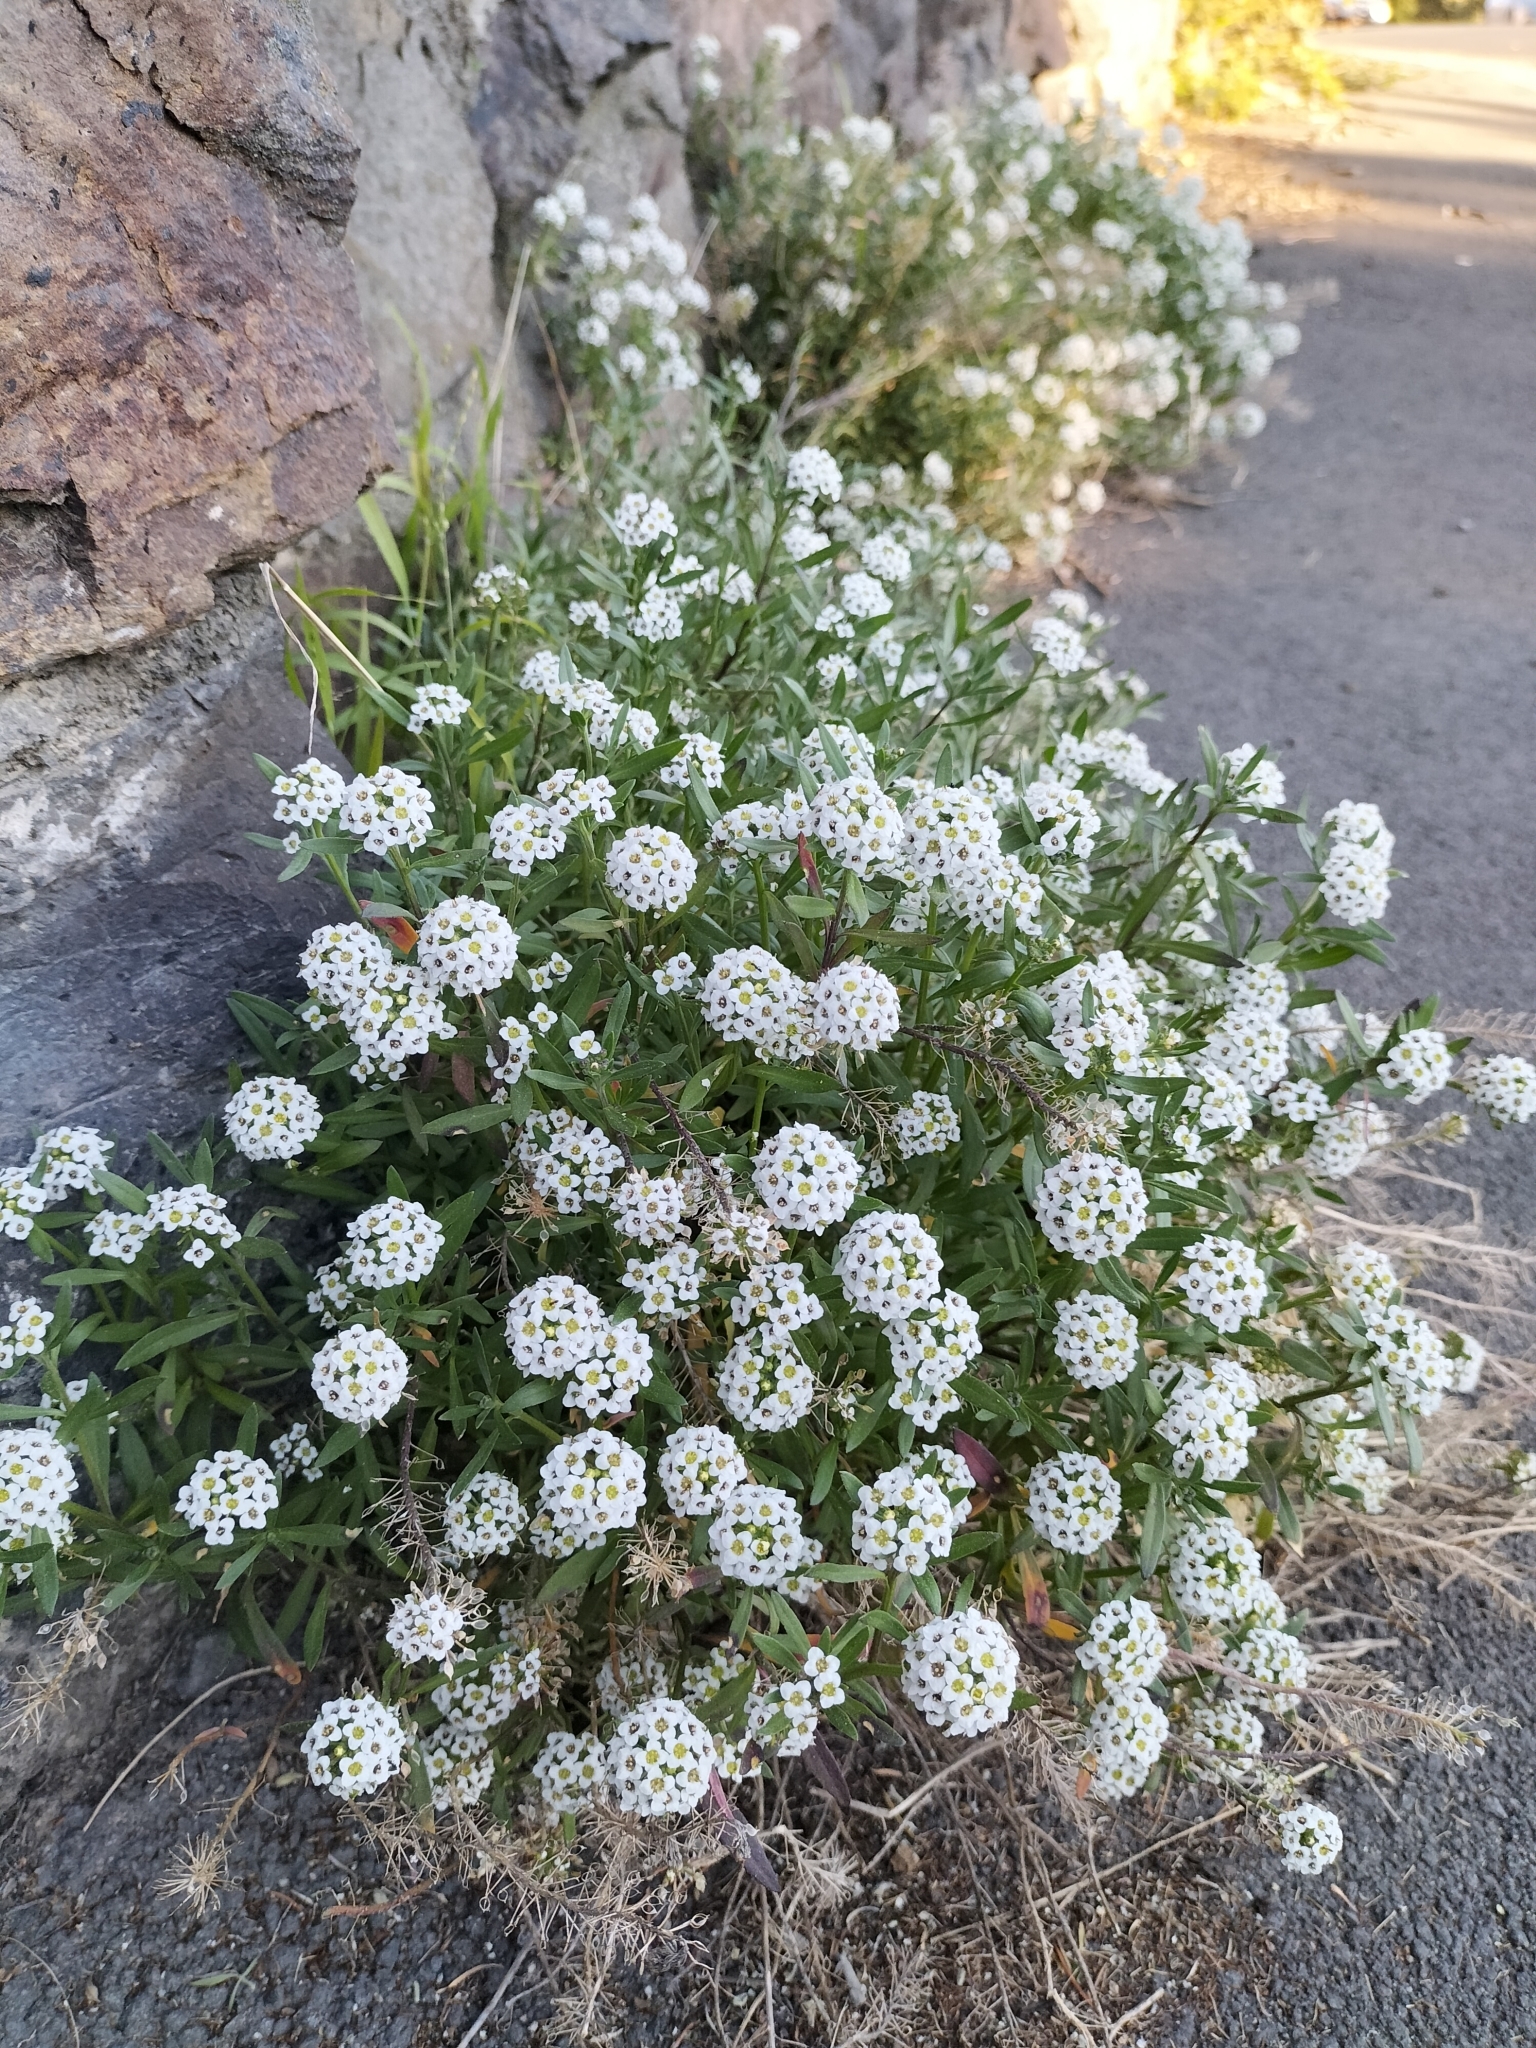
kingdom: Plantae
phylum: Tracheophyta
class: Magnoliopsida
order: Brassicales
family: Brassicaceae
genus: Lobularia
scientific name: Lobularia maritima
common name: Sweet alison
